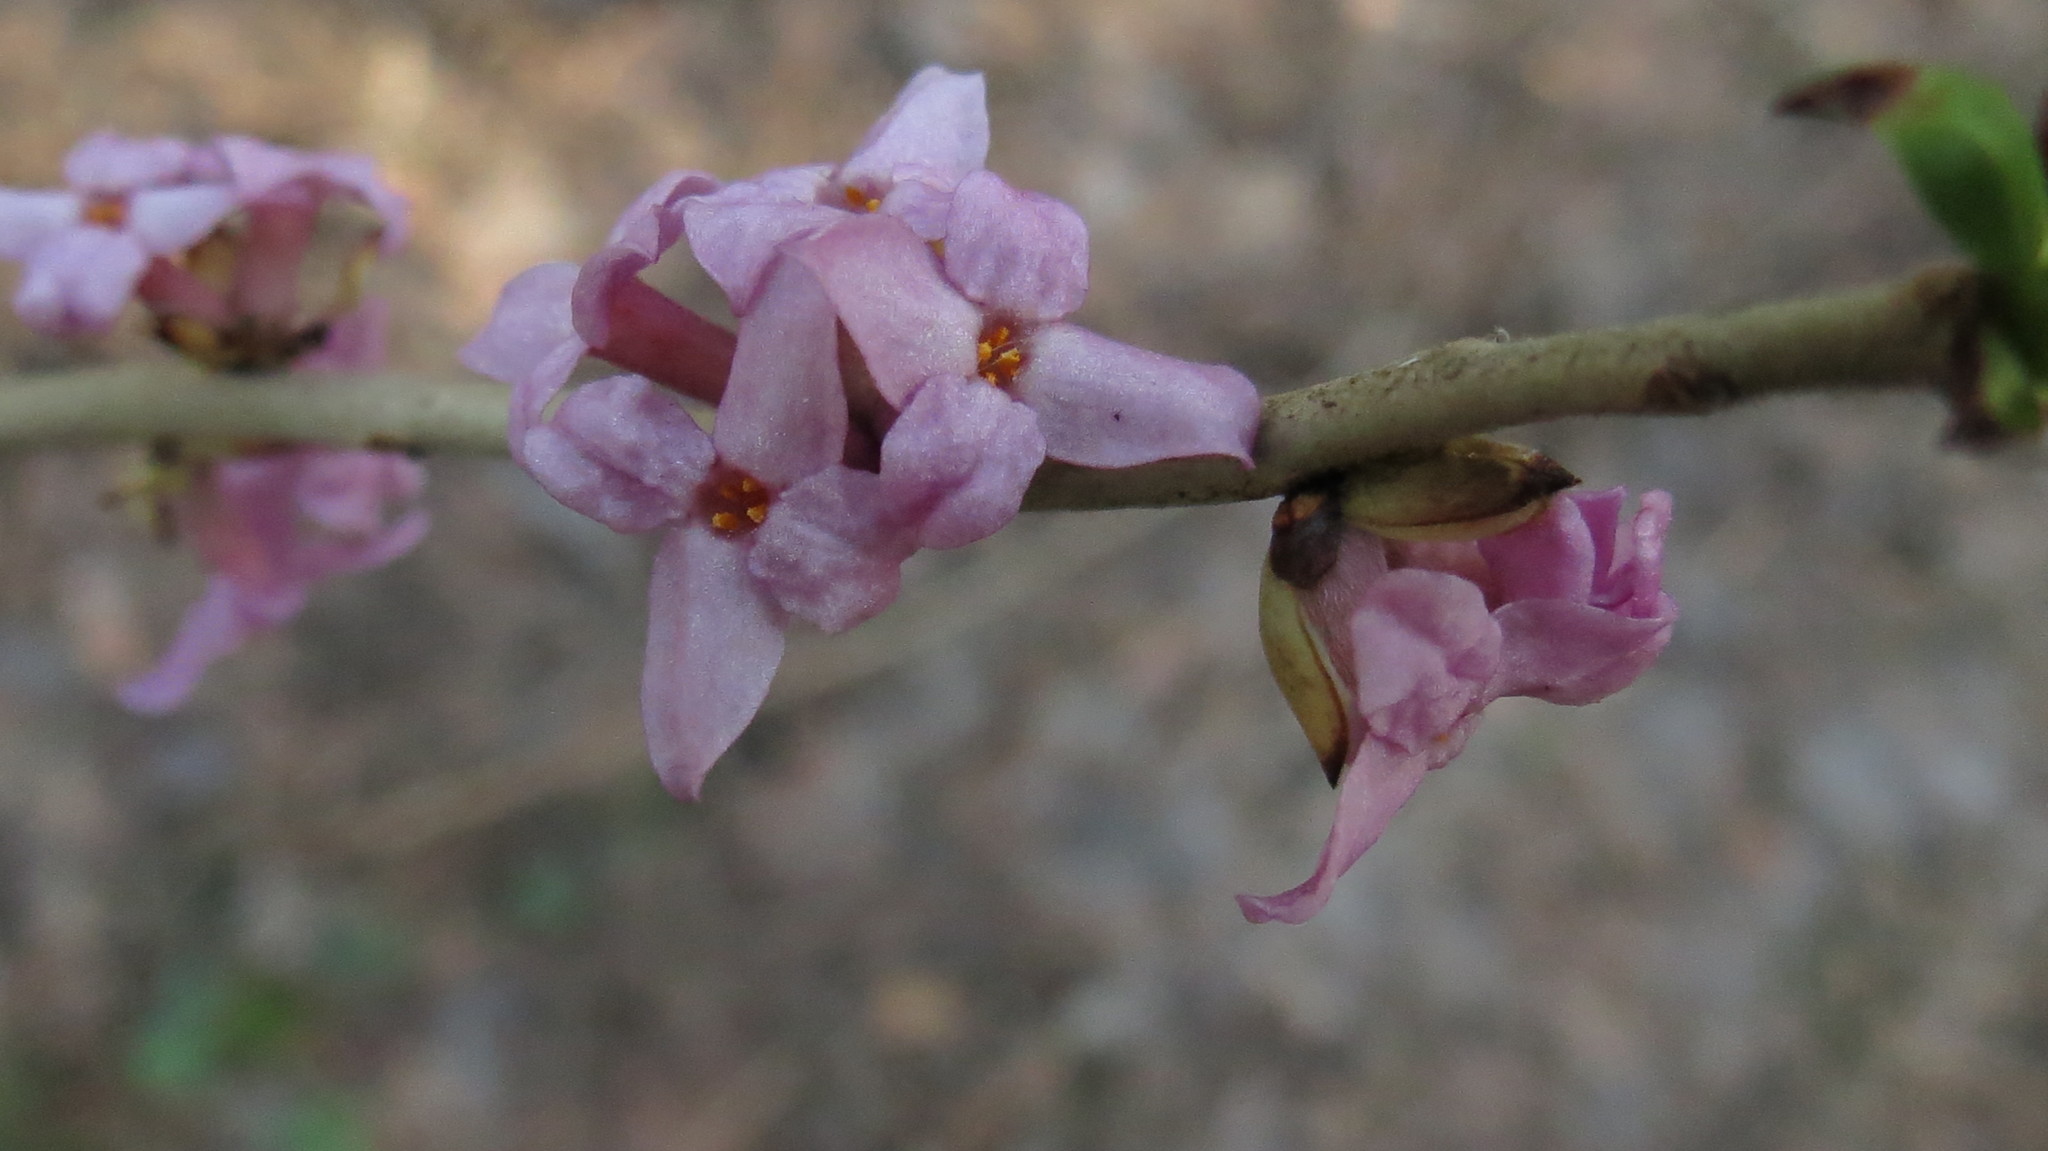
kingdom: Plantae
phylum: Tracheophyta
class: Magnoliopsida
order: Malvales
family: Thymelaeaceae
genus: Daphne
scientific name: Daphne mezereum
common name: Mezereon
